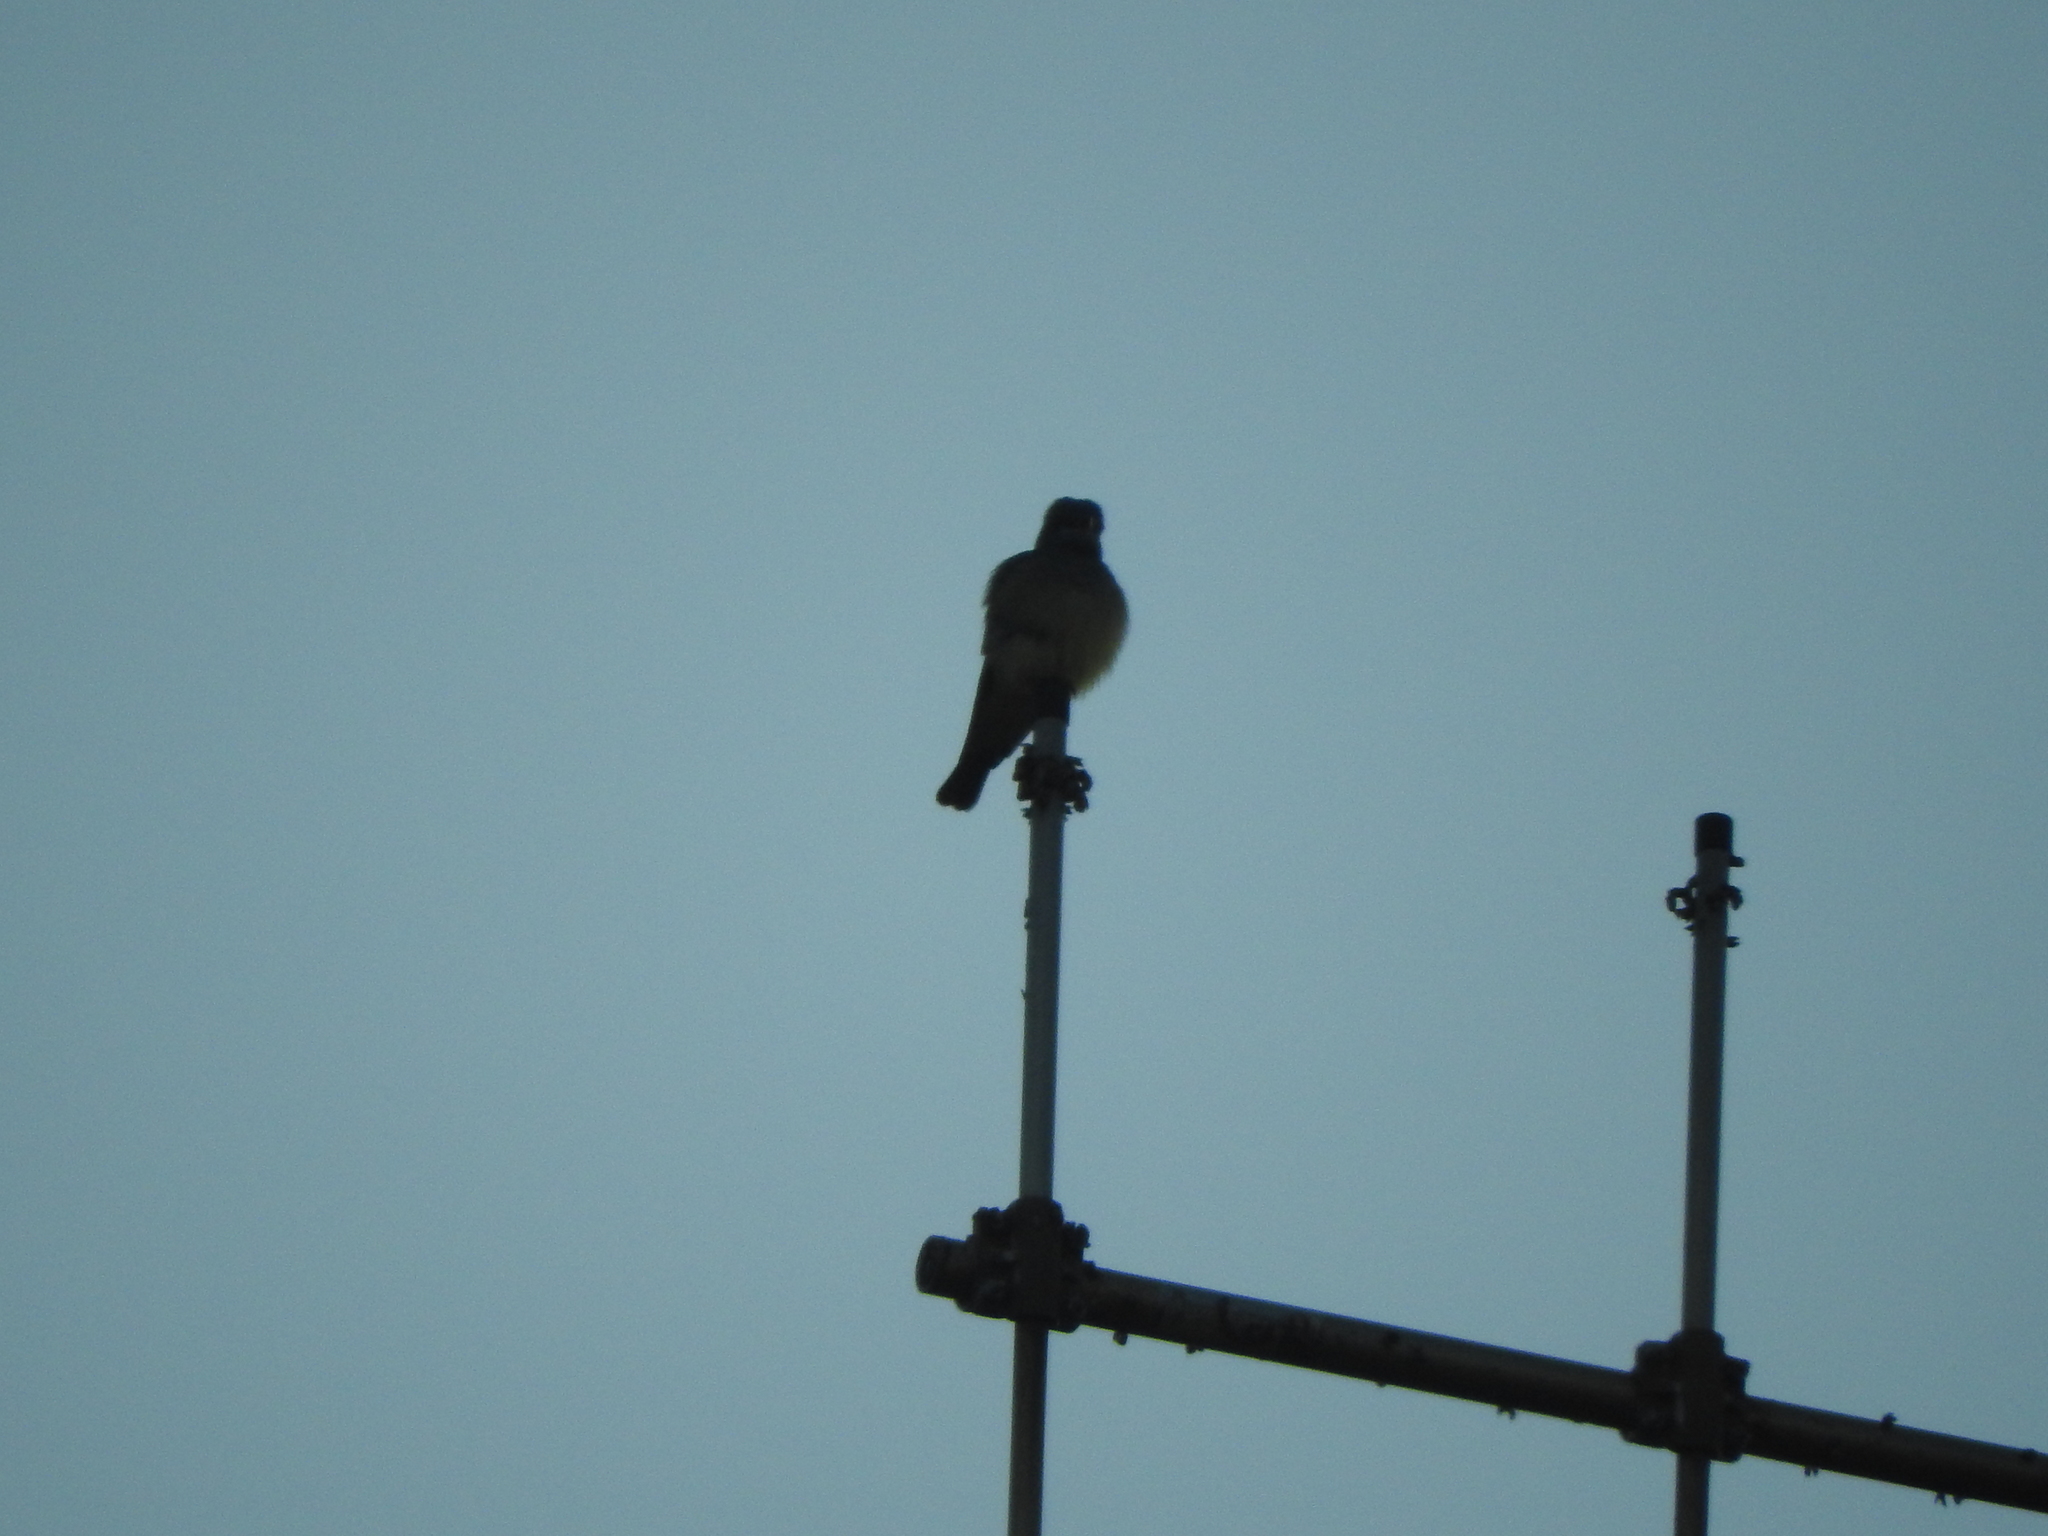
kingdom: Animalia
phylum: Chordata
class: Aves
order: Passeriformes
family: Tyrannidae
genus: Tyrannus
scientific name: Tyrannus vociferans
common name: Cassin's kingbird
